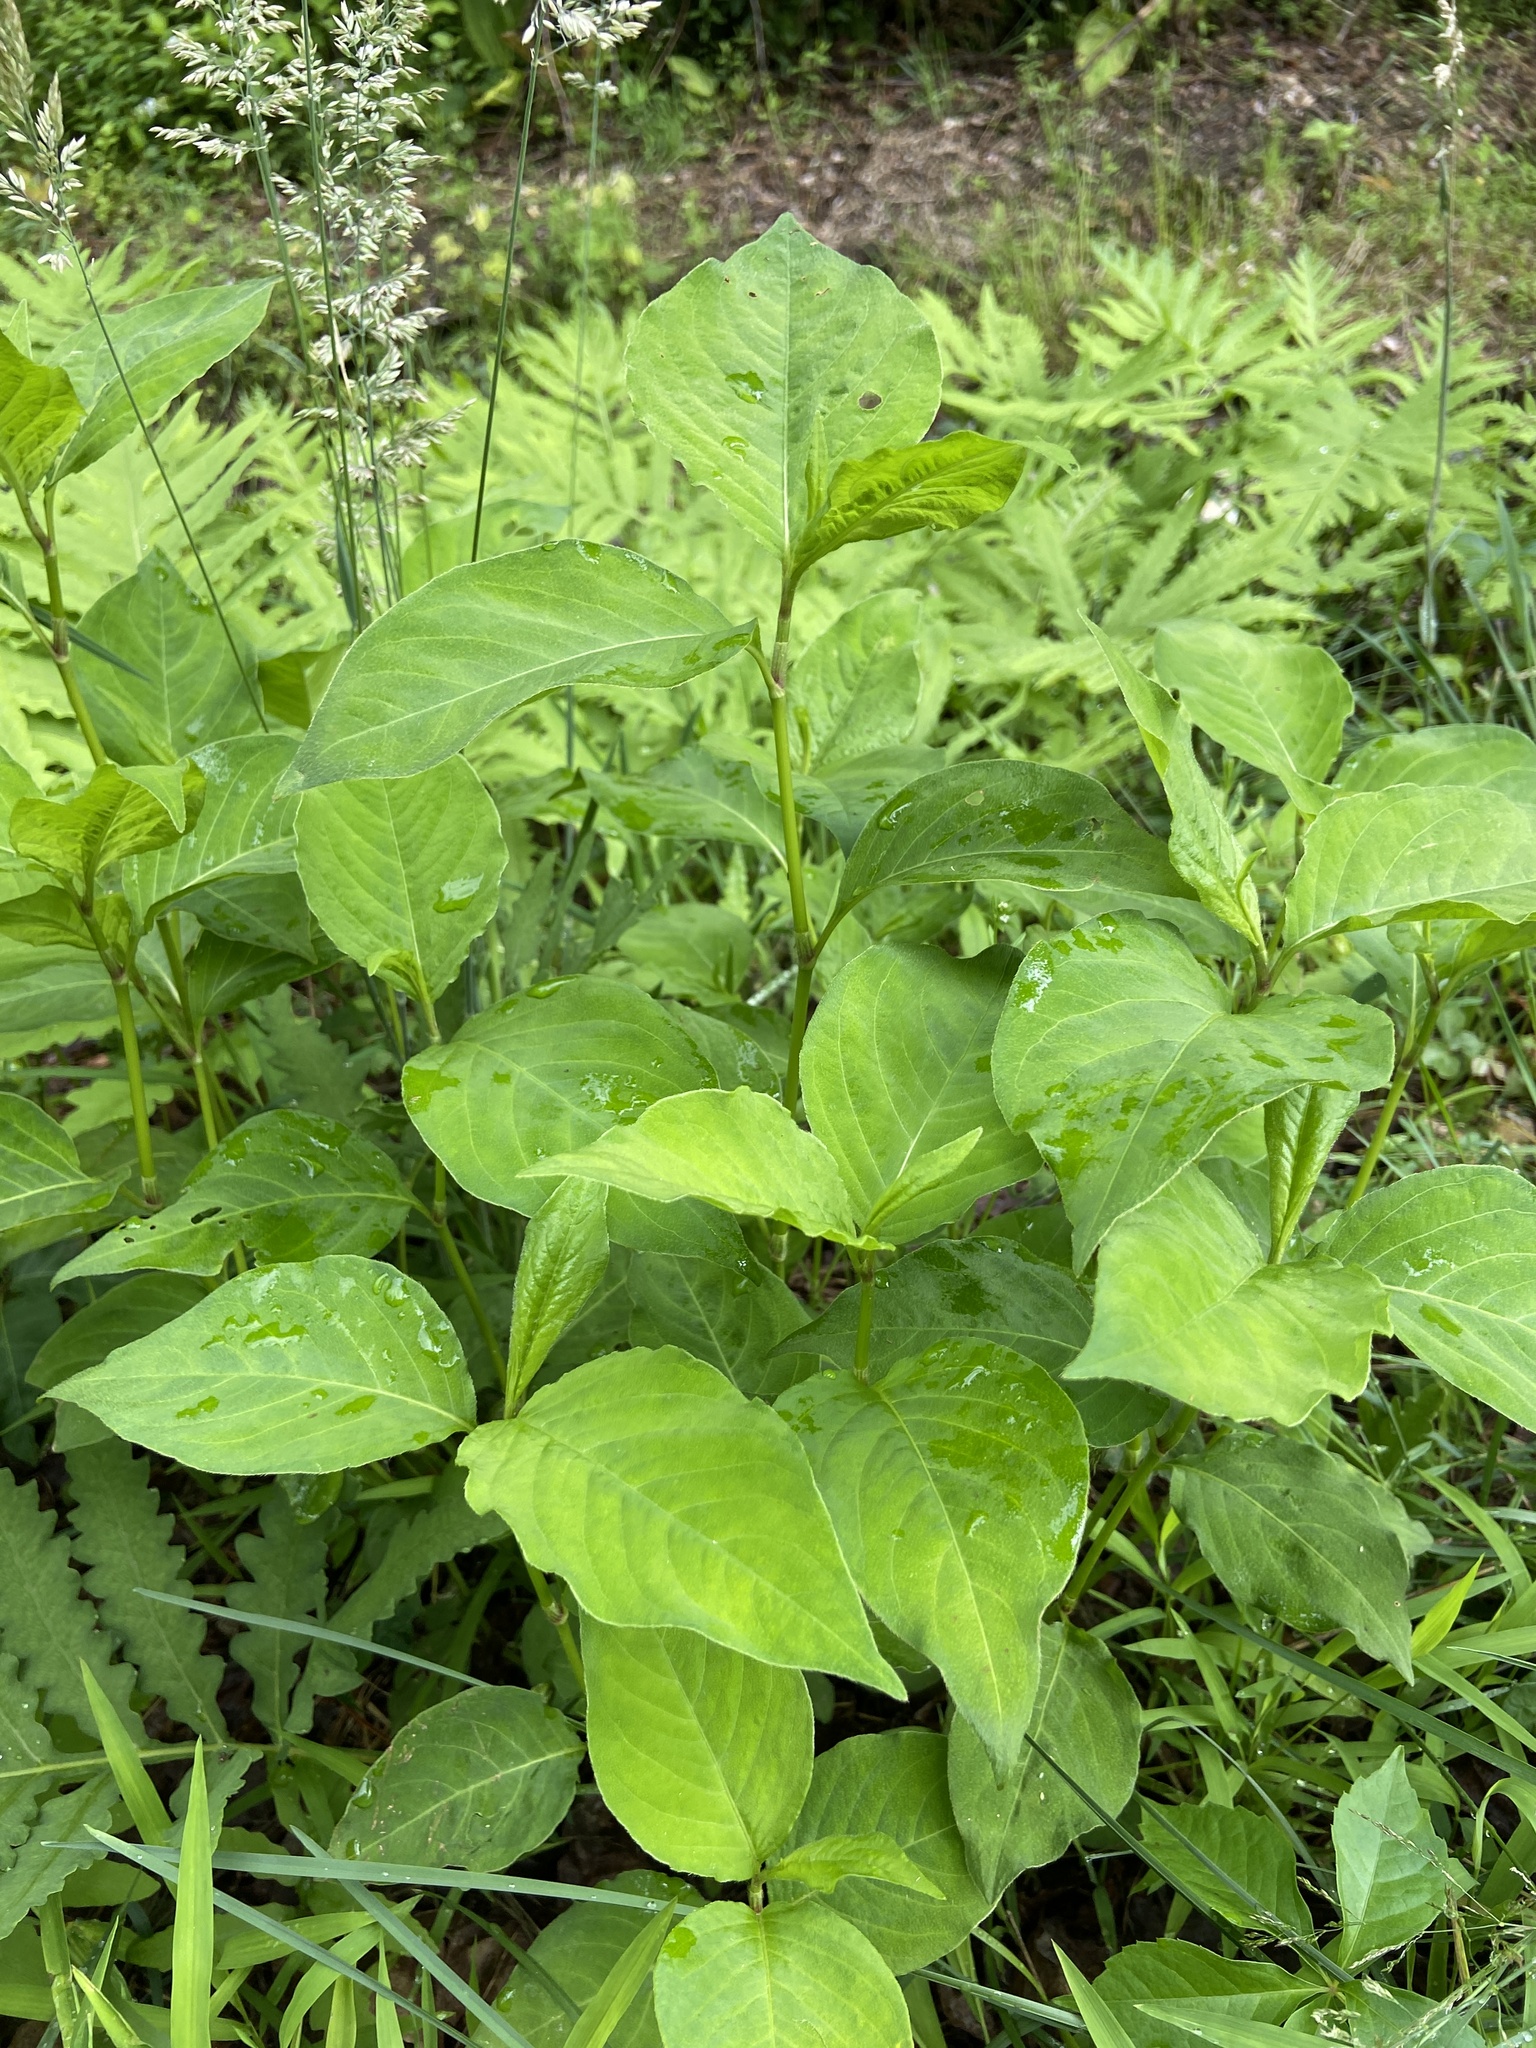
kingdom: Plantae
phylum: Tracheophyta
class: Magnoliopsida
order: Caryophyllales
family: Polygonaceae
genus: Persicaria
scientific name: Persicaria virginiana
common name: Jumpseed
